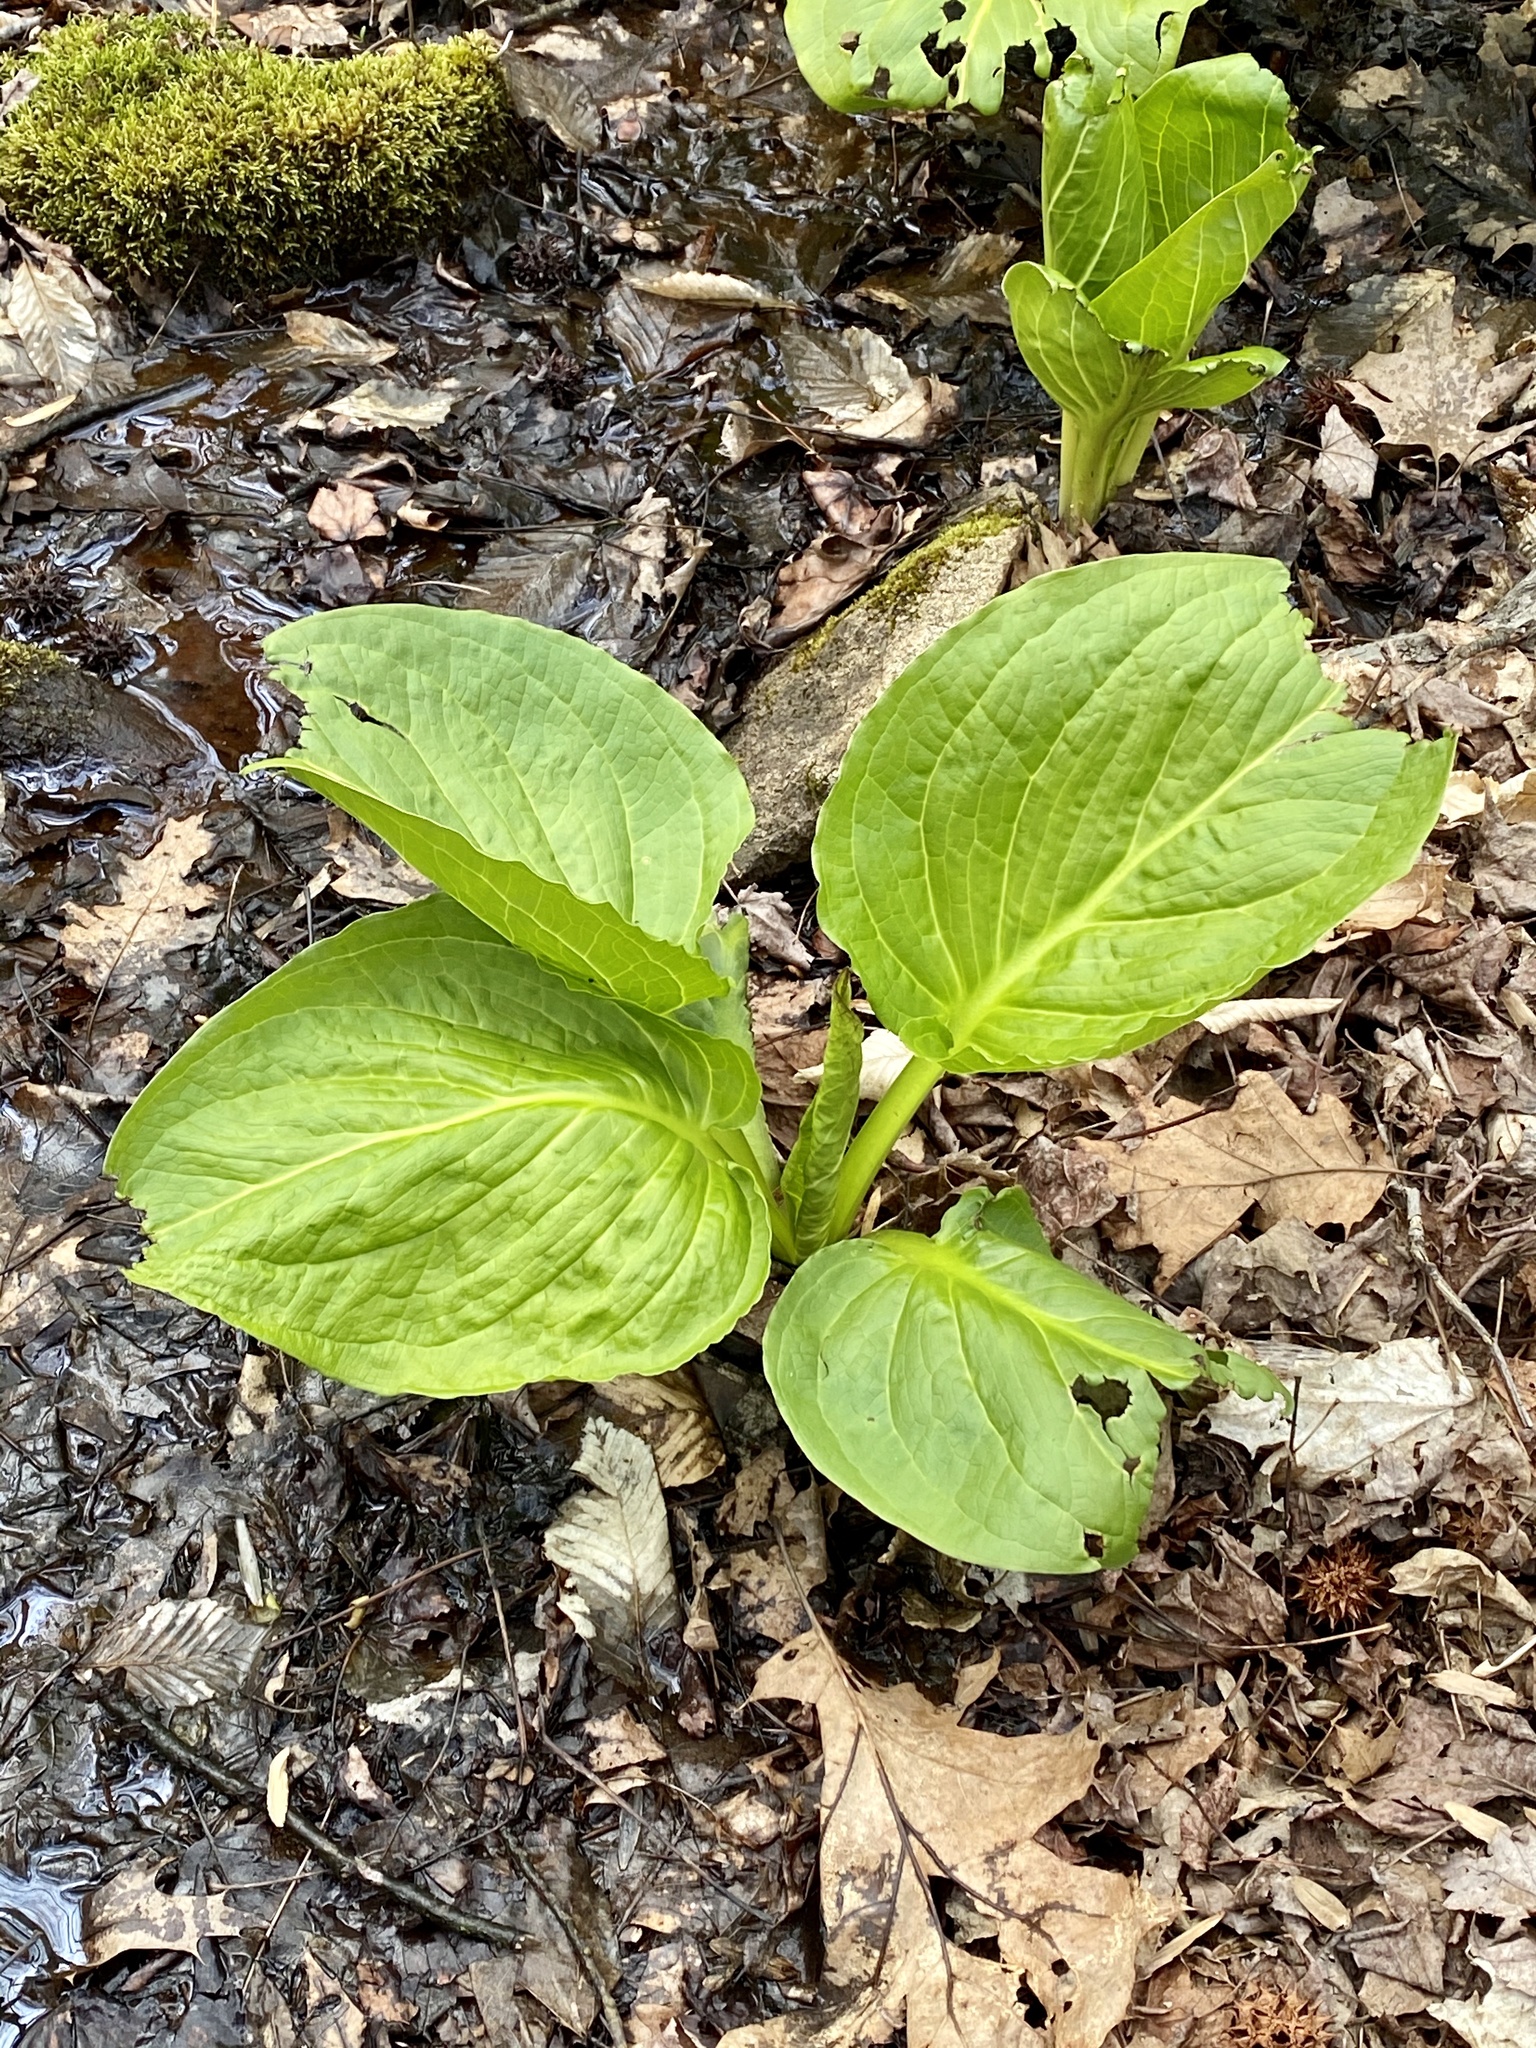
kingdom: Plantae
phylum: Tracheophyta
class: Liliopsida
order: Alismatales
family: Araceae
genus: Symplocarpus
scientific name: Symplocarpus foetidus
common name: Eastern skunk cabbage
